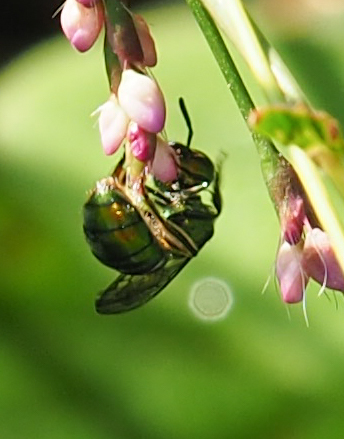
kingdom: Animalia
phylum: Arthropoda
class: Insecta
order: Hymenoptera
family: Halictidae
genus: Augochlora
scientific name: Augochlora pura
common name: Pure green sweat bee
